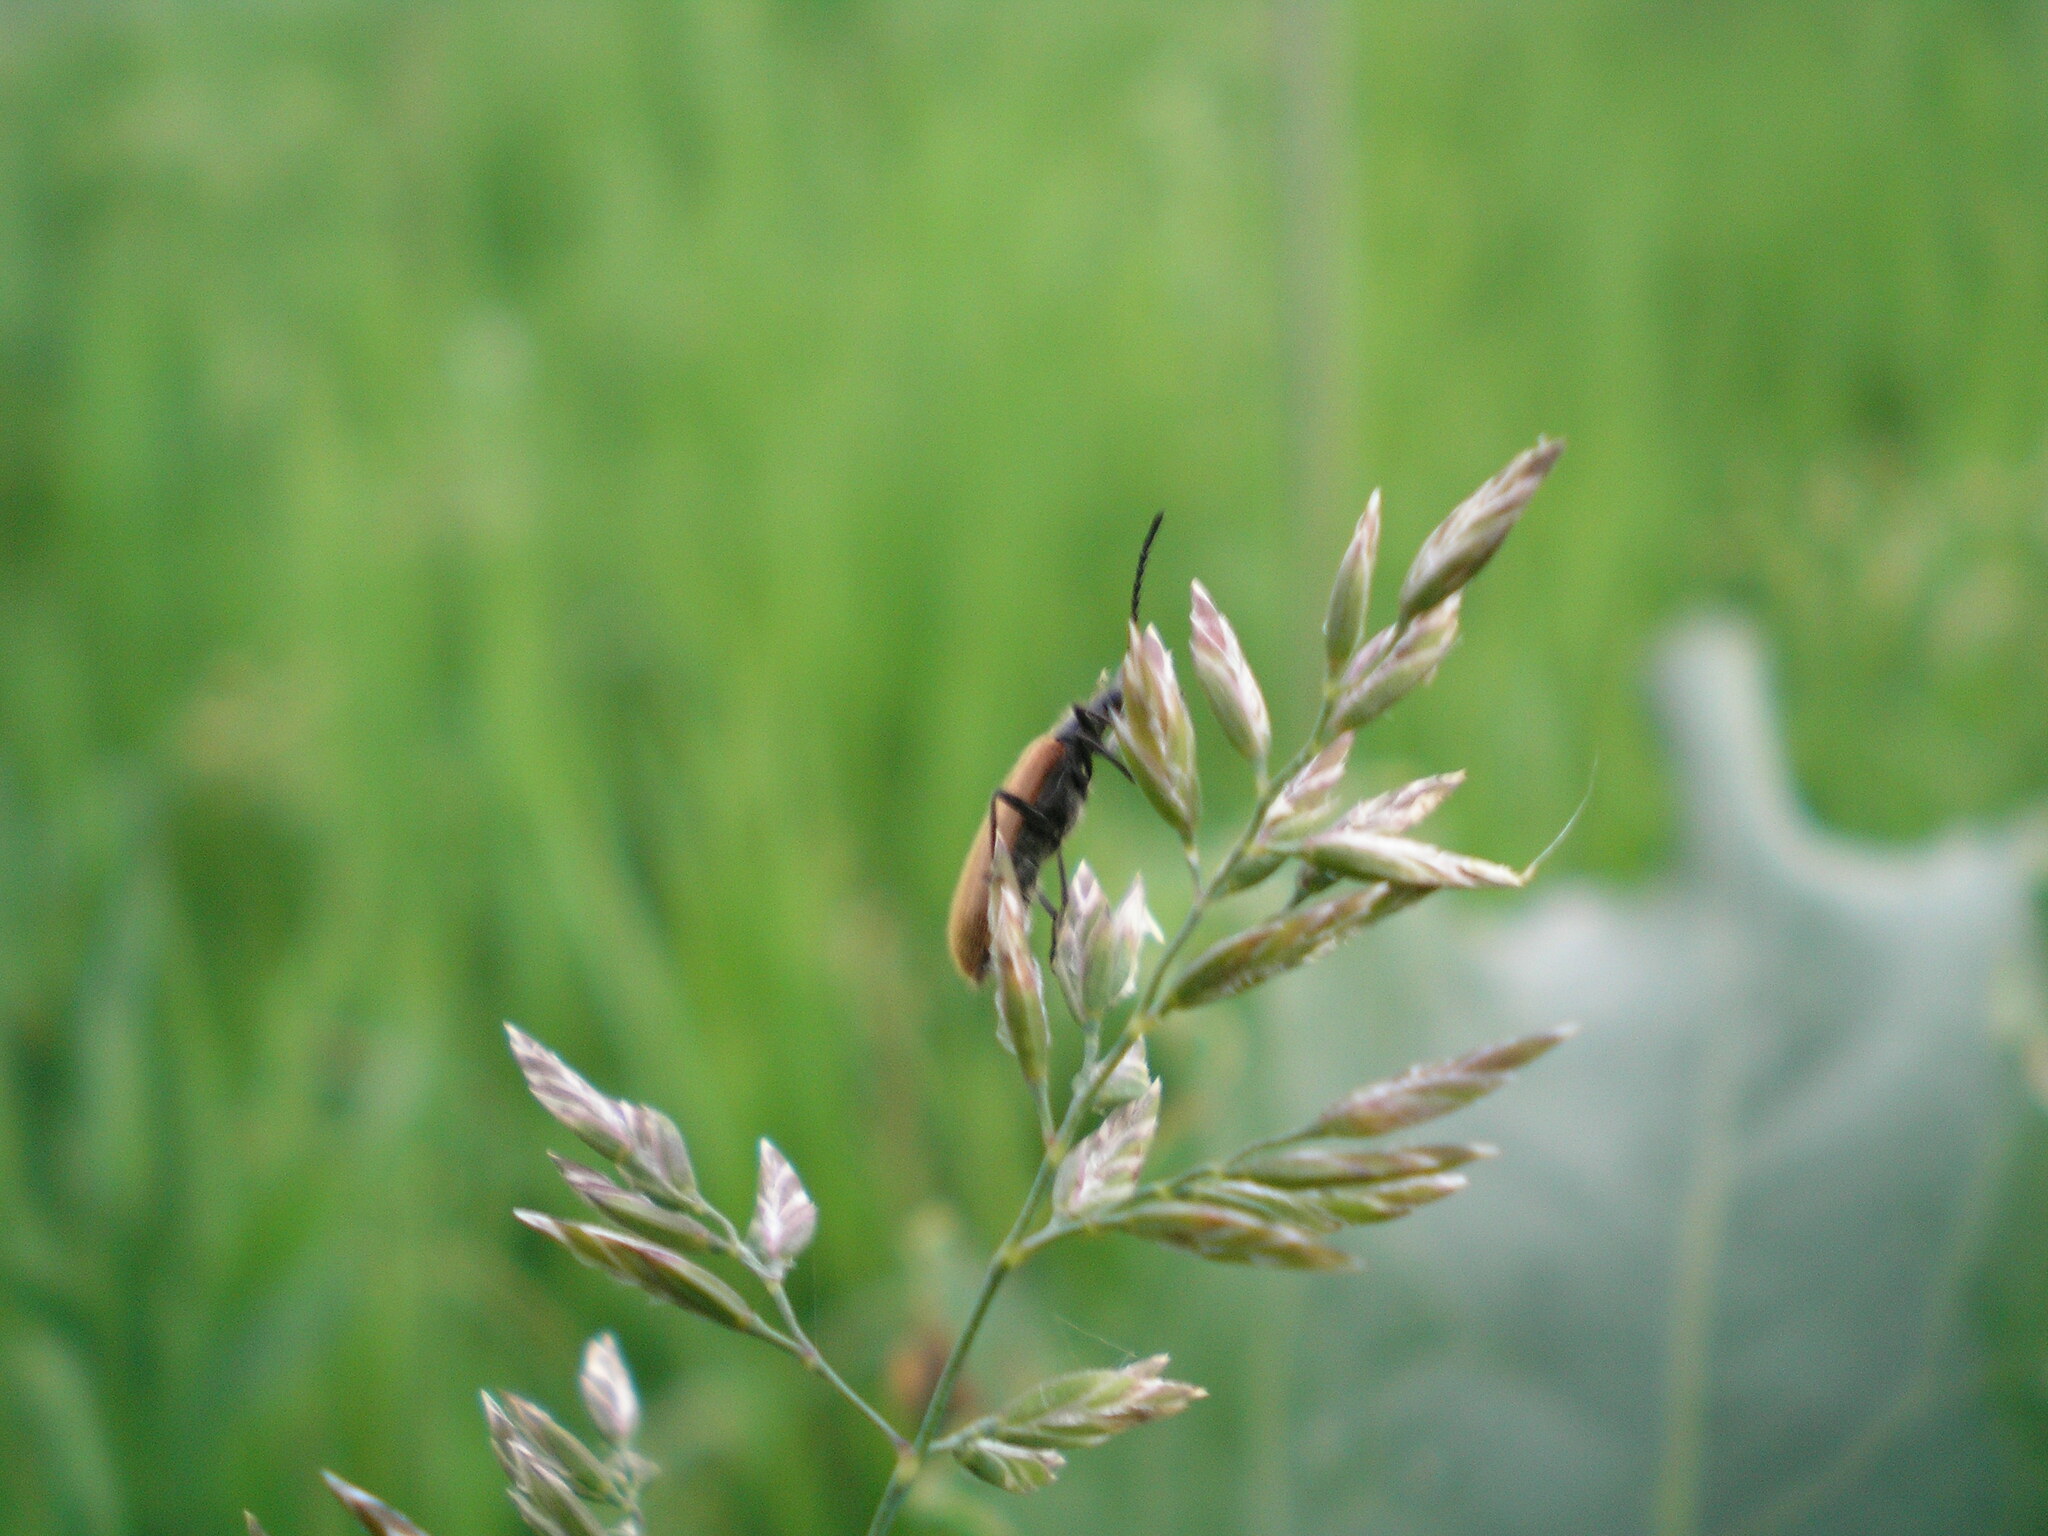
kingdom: Animalia
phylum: Arthropoda
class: Insecta
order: Coleoptera
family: Tenebrionidae
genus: Lagria
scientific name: Lagria hirta
